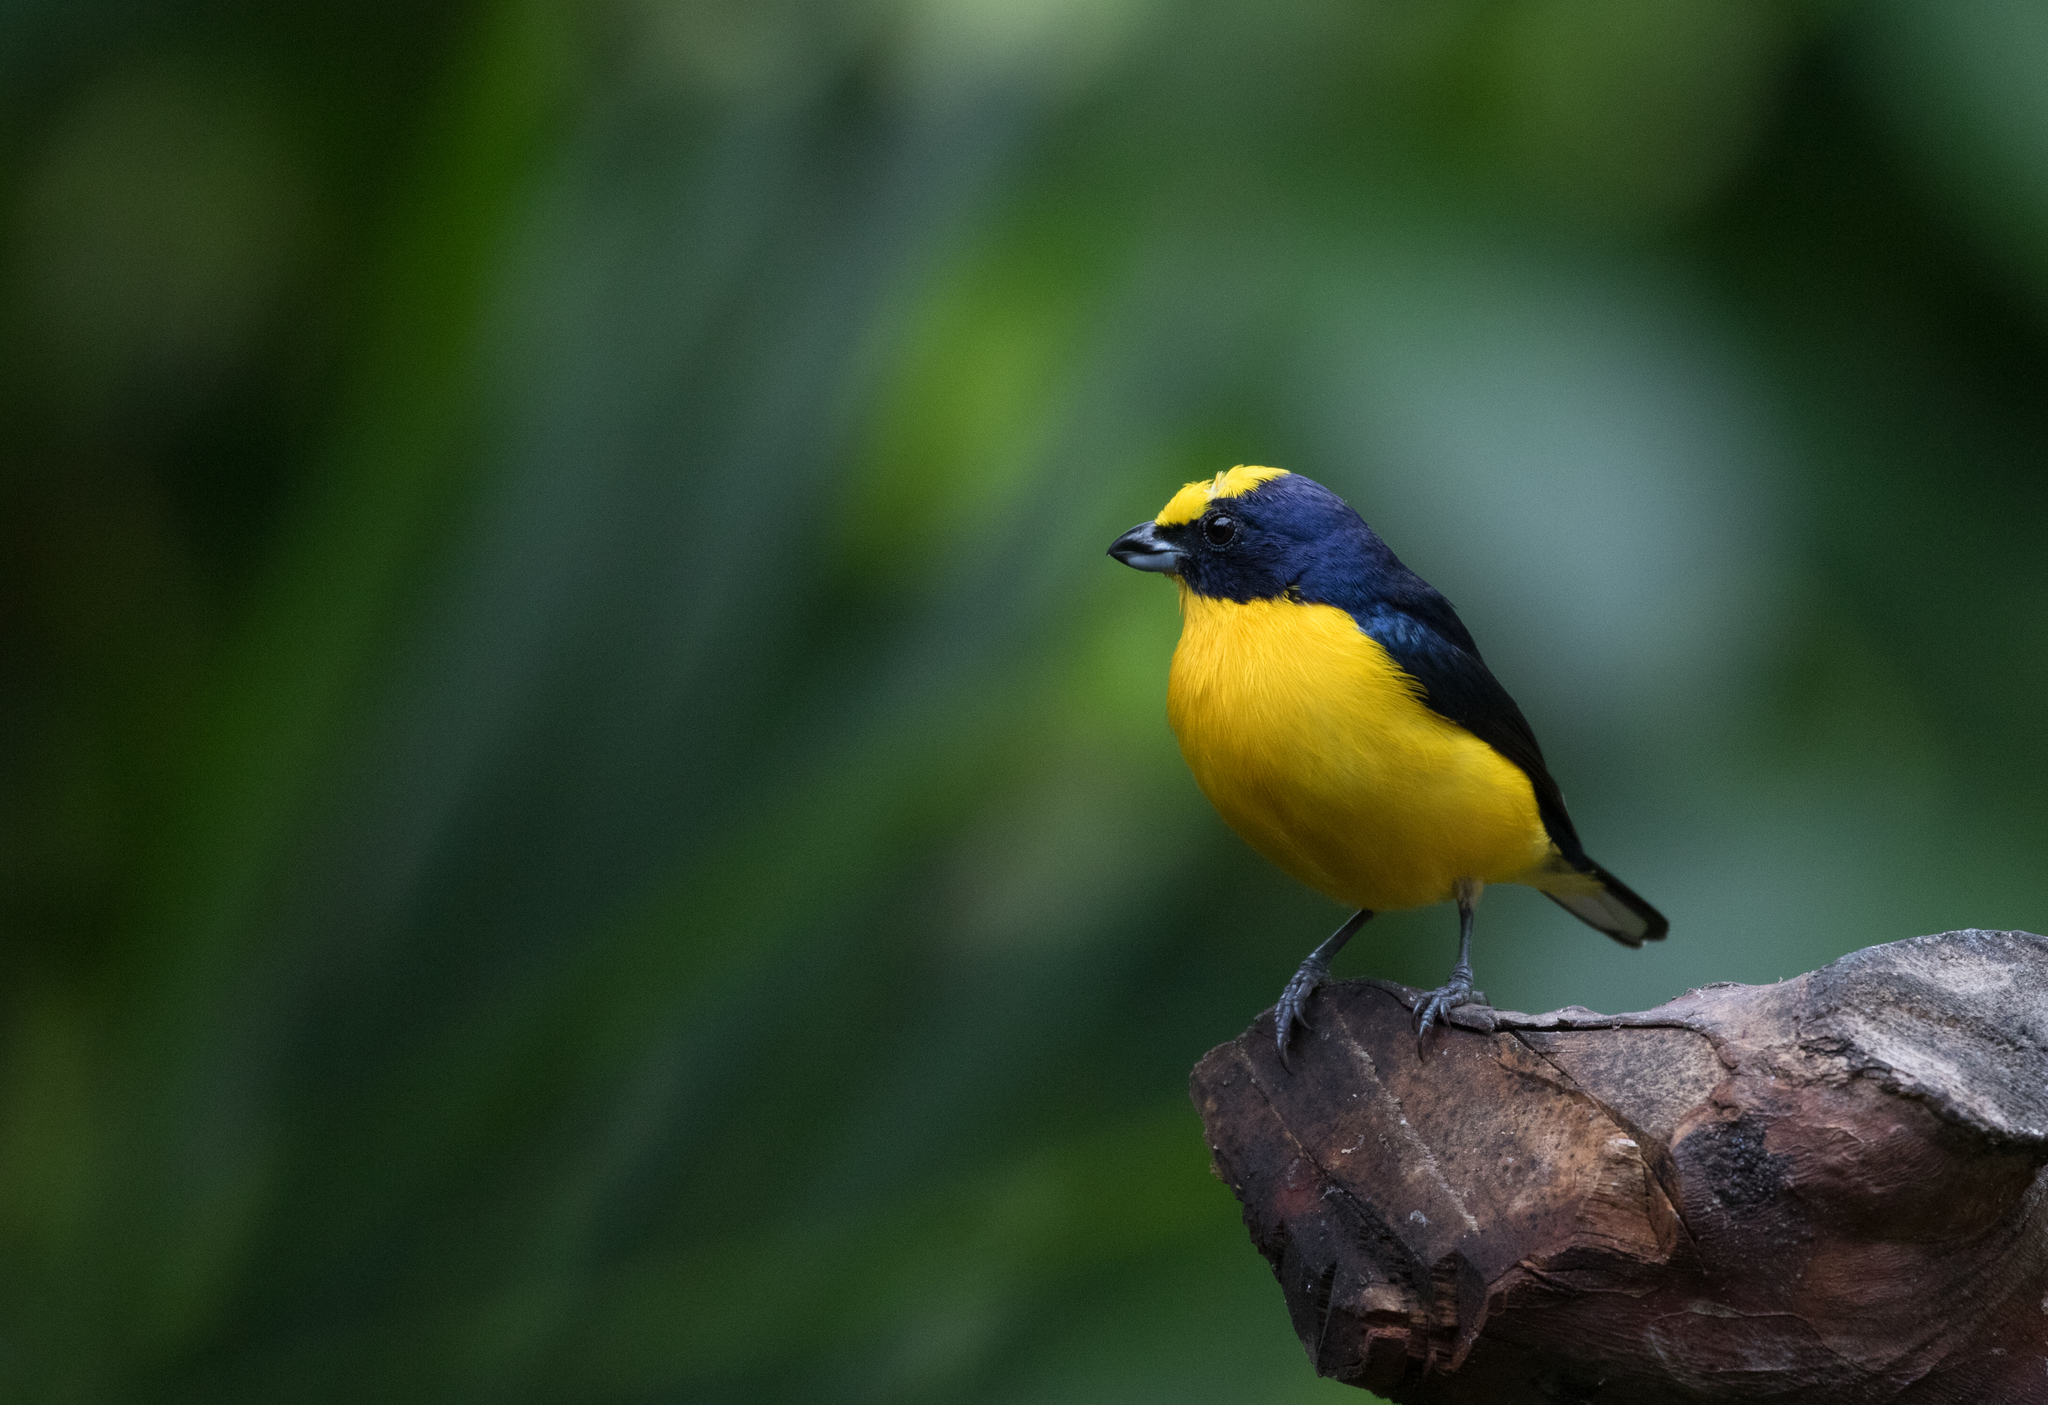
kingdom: Animalia
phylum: Chordata
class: Aves
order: Passeriformes
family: Fringillidae
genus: Euphonia
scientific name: Euphonia laniirostris
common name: Thick-billed euphonia
